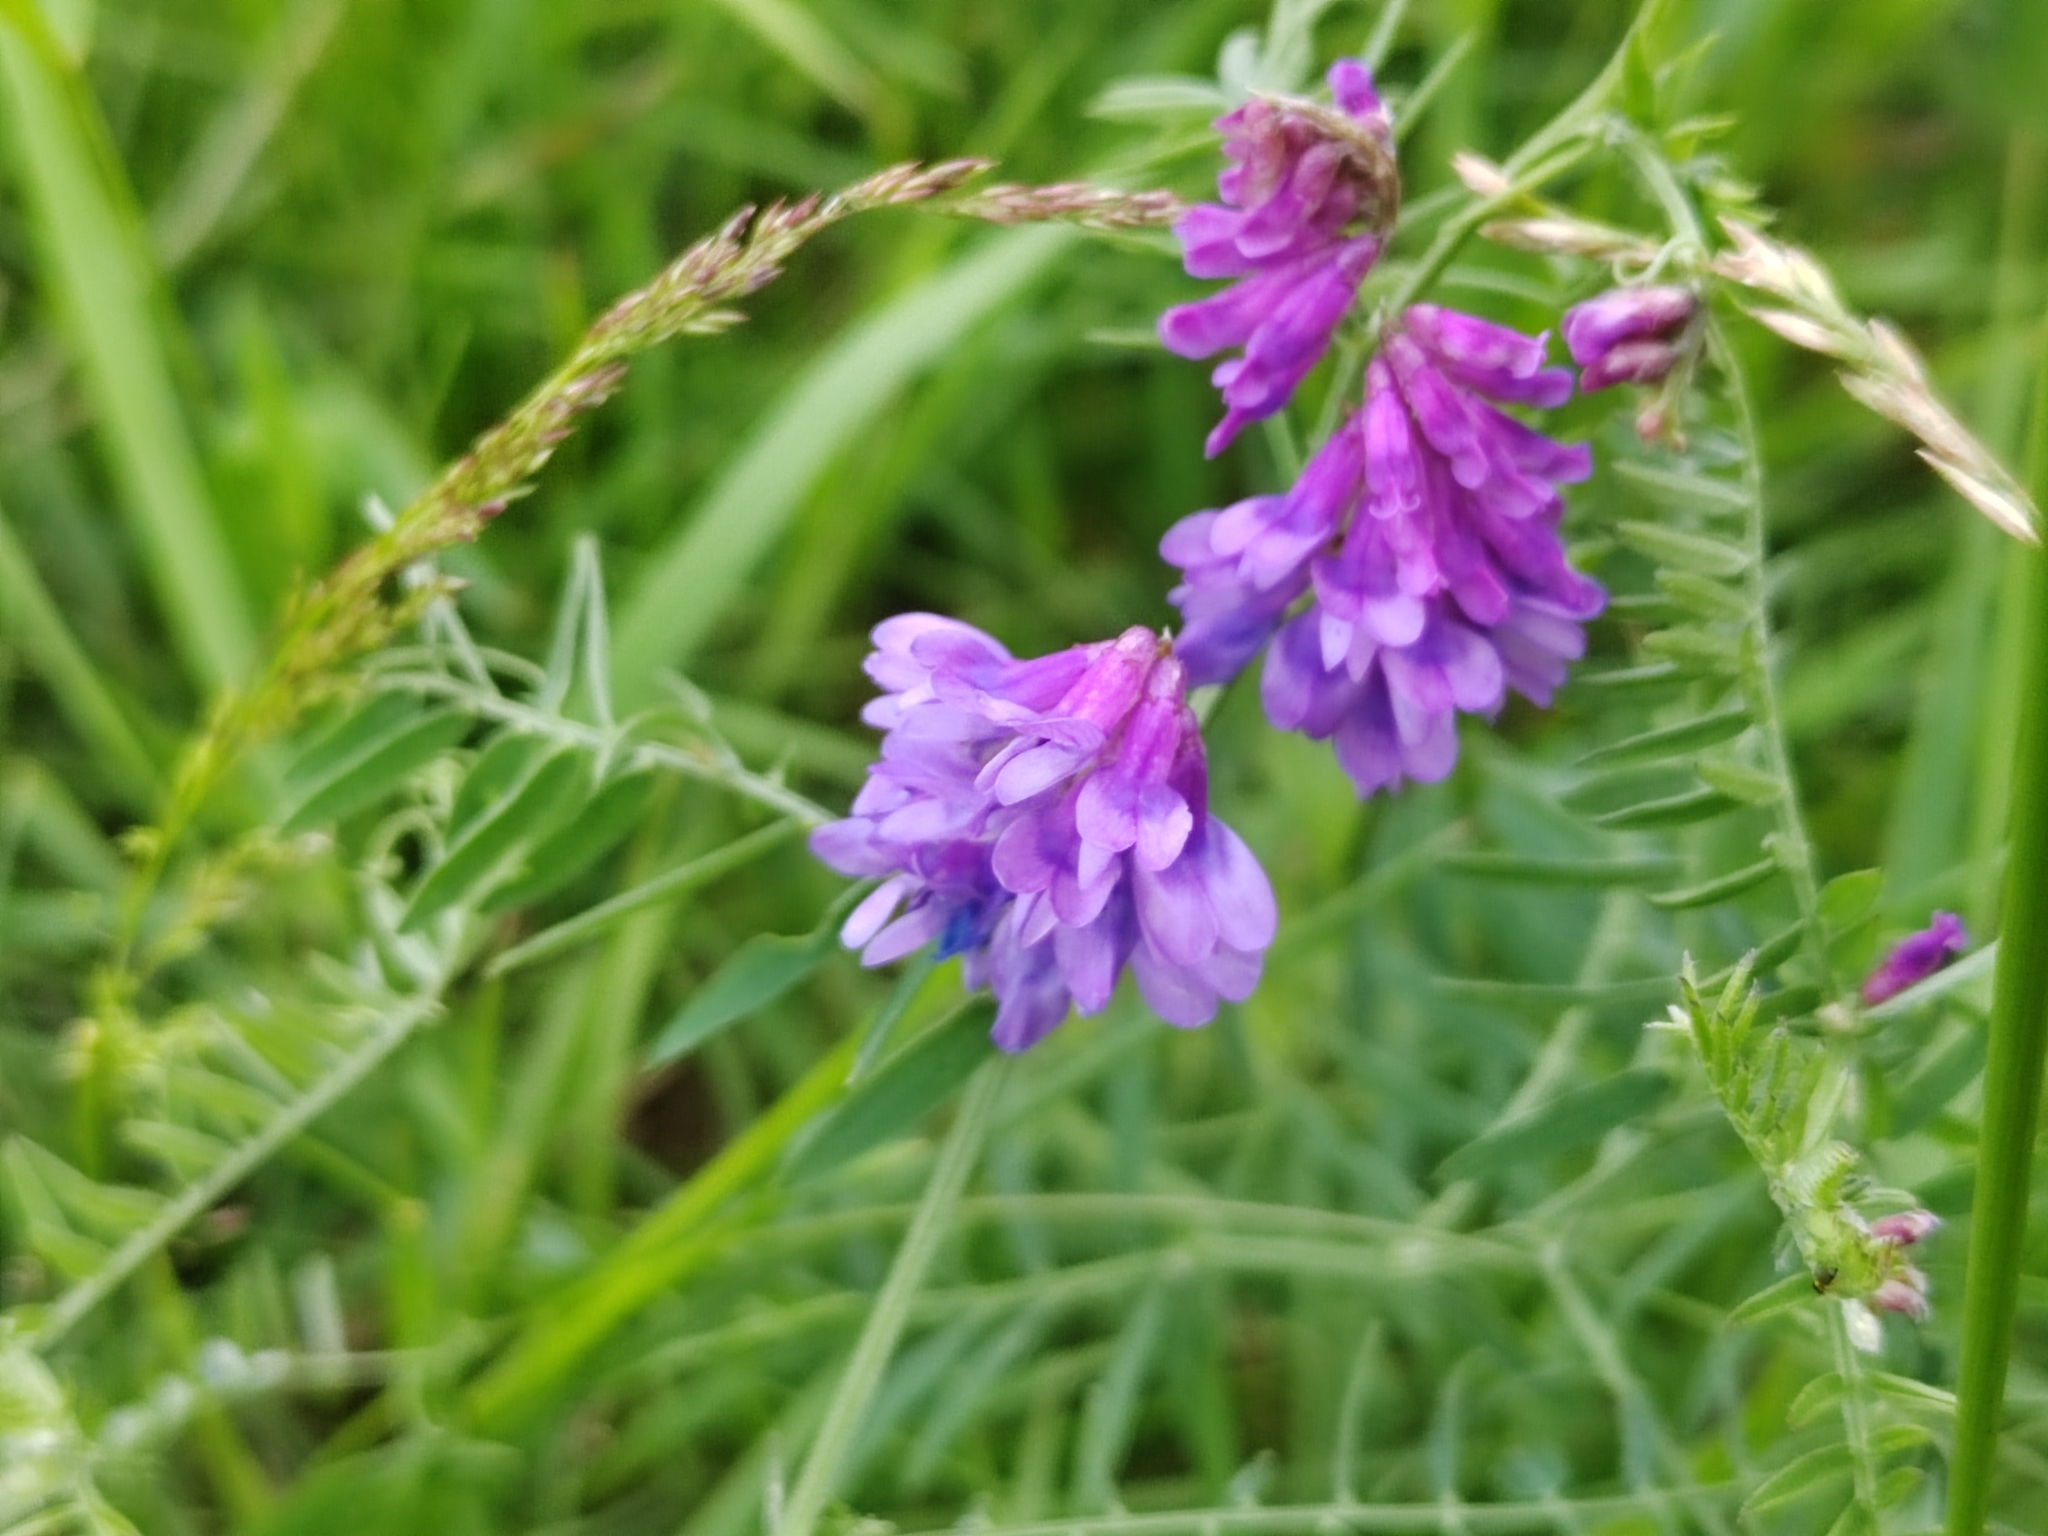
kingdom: Plantae
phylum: Tracheophyta
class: Magnoliopsida
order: Fabales
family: Fabaceae
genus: Vicia
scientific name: Vicia cracca
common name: Bird vetch
